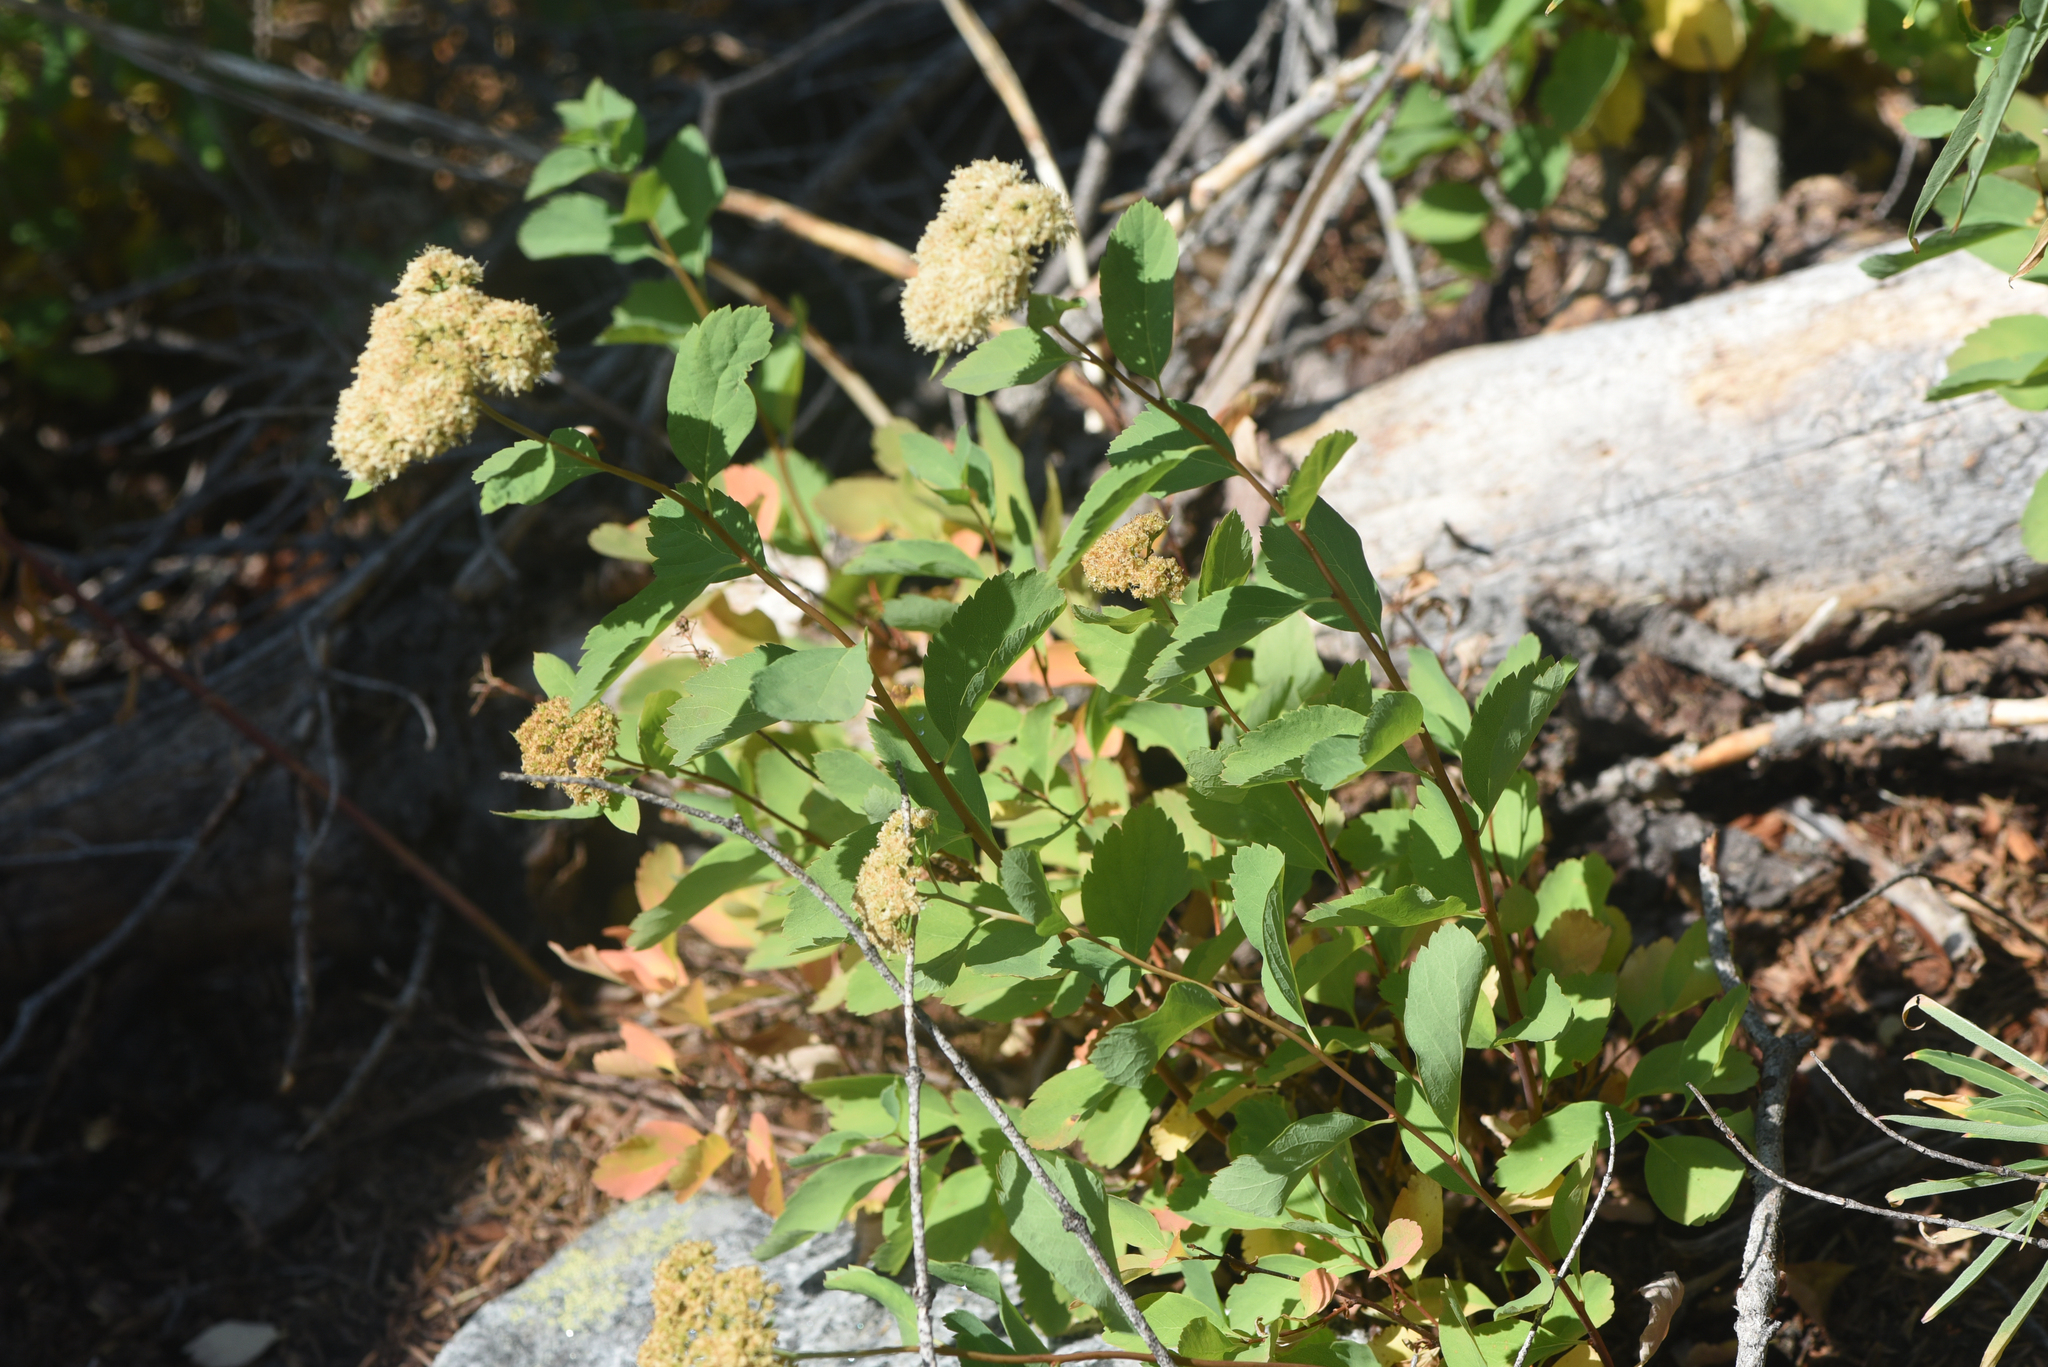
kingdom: Plantae
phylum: Tracheophyta
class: Magnoliopsida
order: Rosales
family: Rosaceae
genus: Spiraea
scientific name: Spiraea lucida
